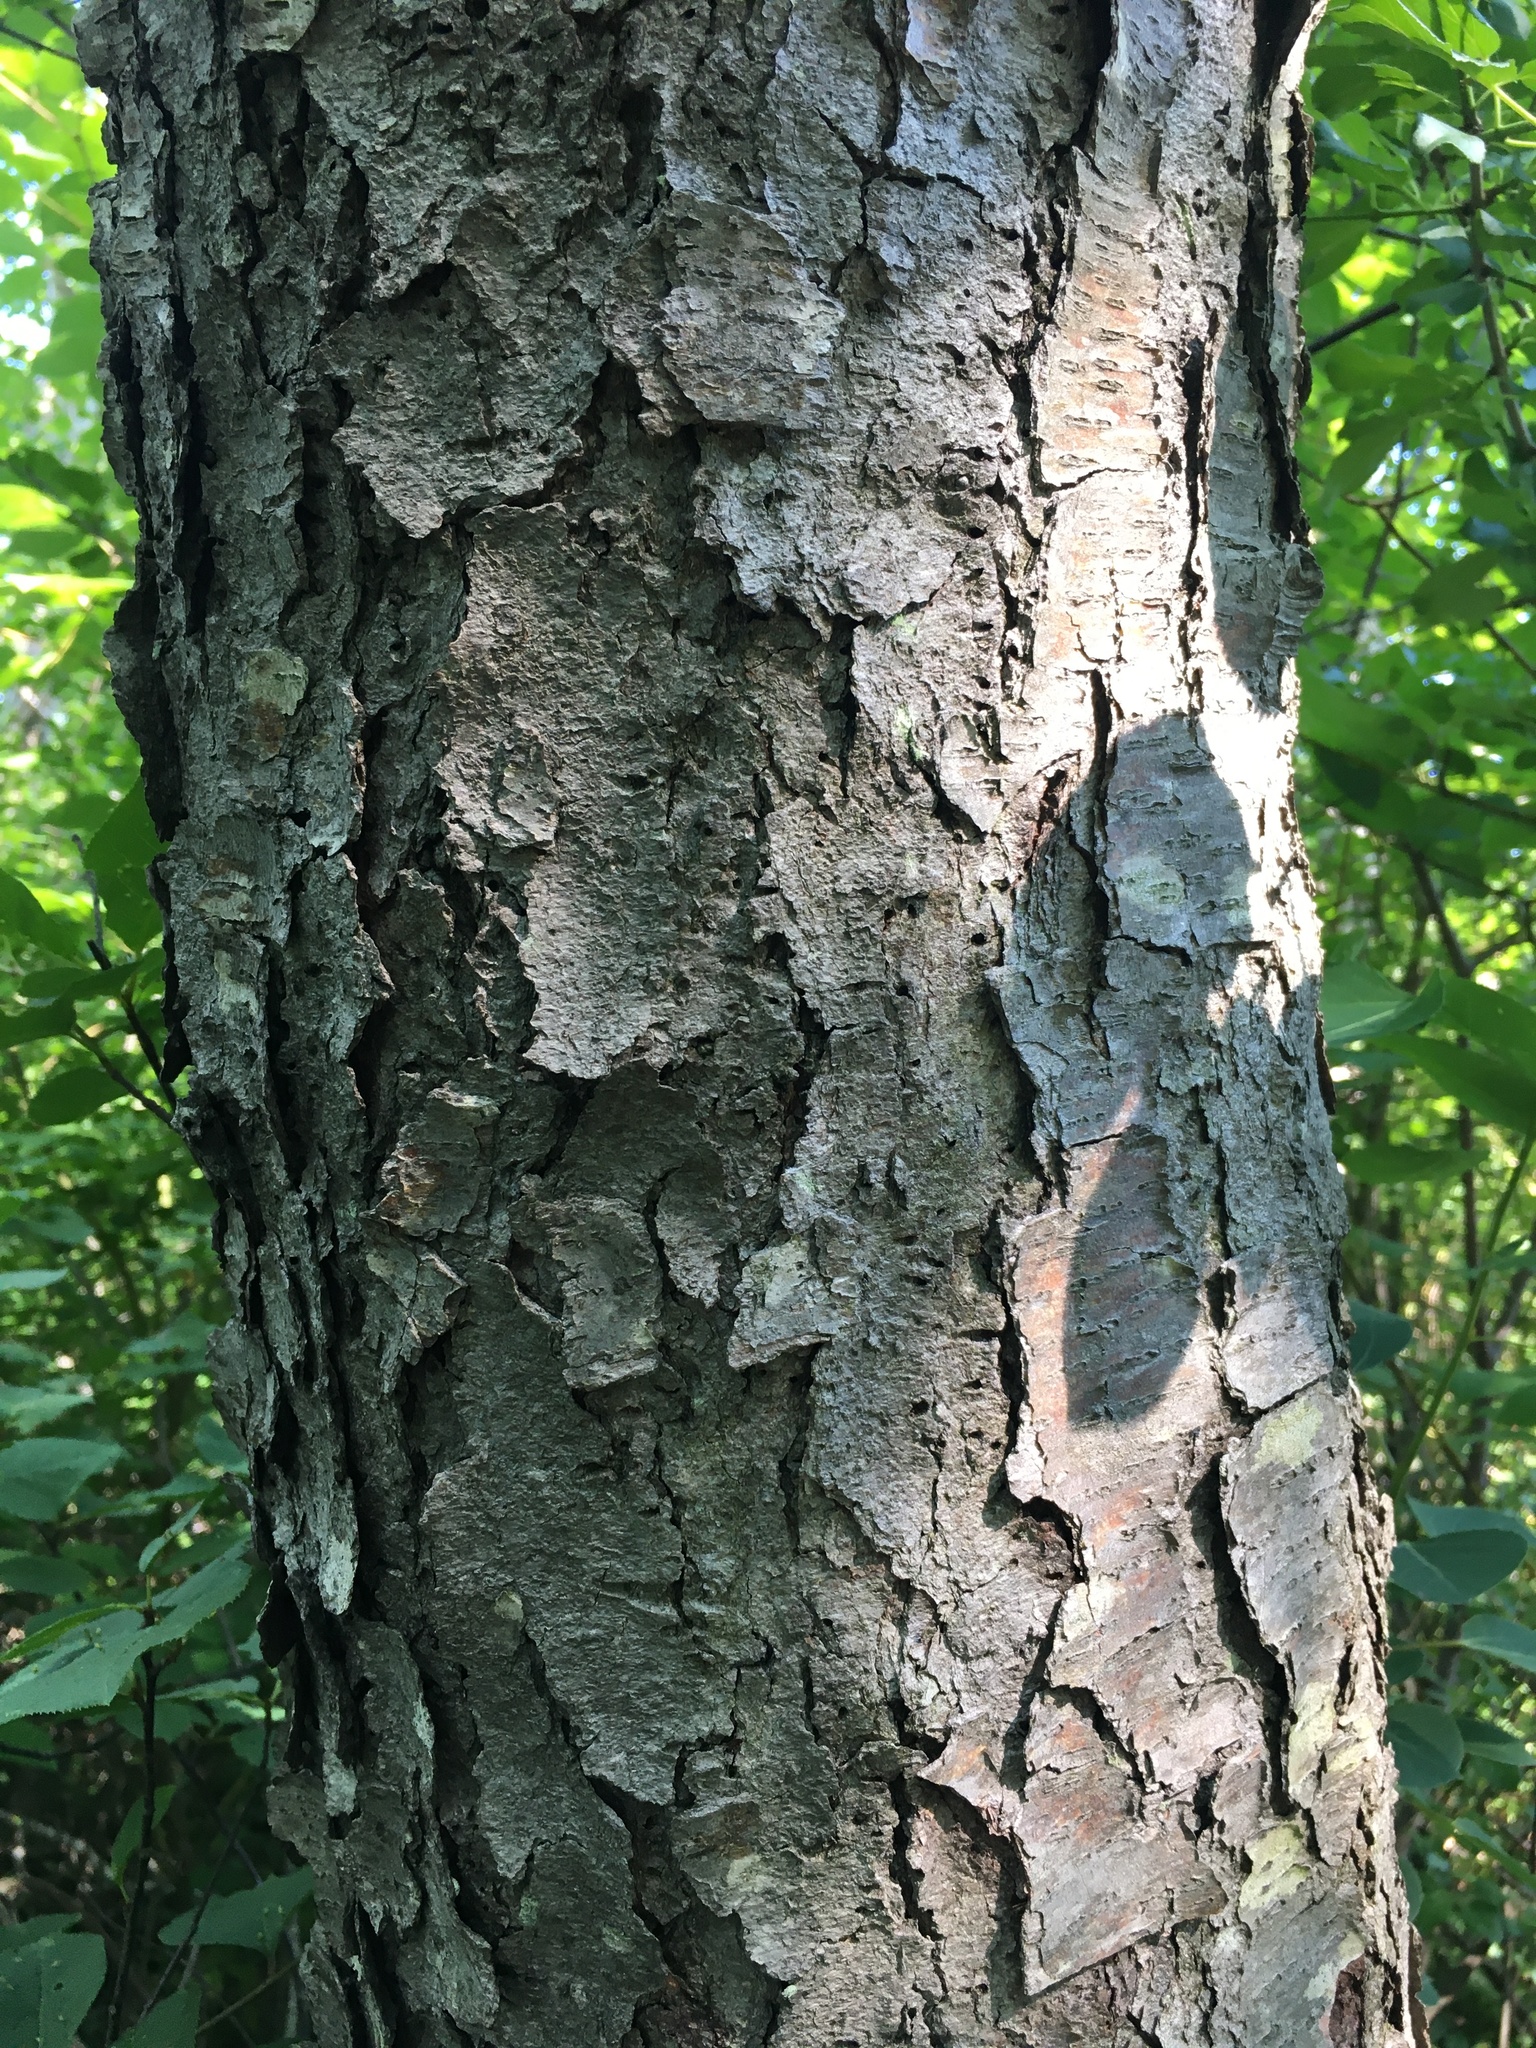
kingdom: Plantae
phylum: Tracheophyta
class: Magnoliopsida
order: Rosales
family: Rosaceae
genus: Prunus
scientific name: Prunus serotina
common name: Black cherry
